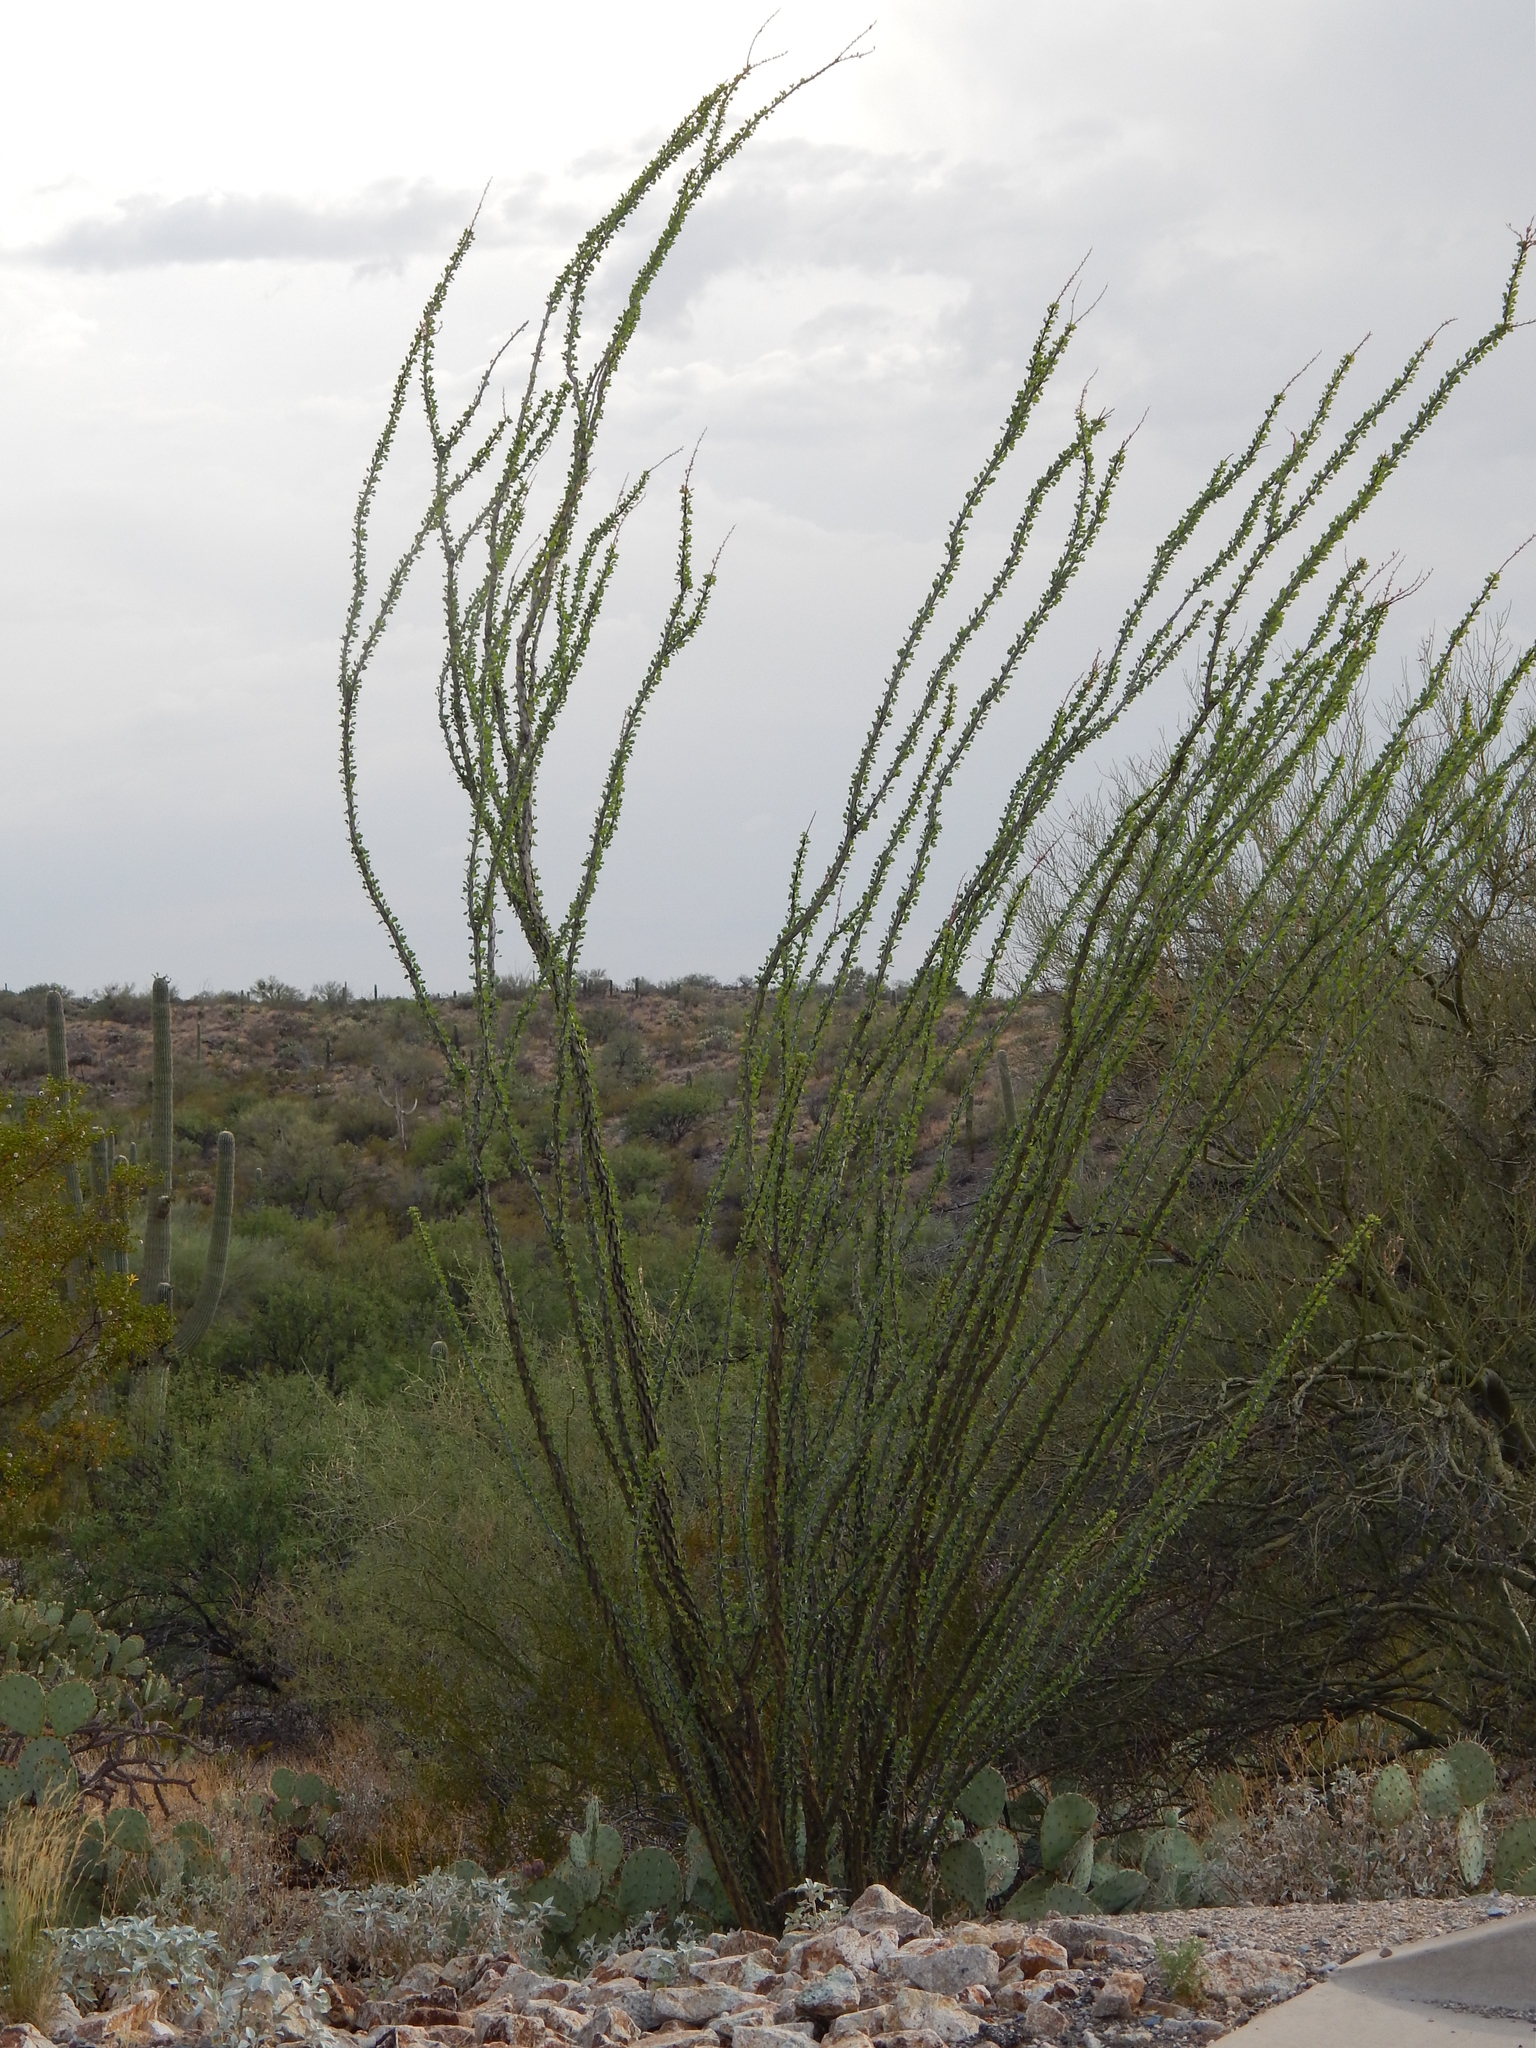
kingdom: Plantae
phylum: Tracheophyta
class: Magnoliopsida
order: Ericales
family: Fouquieriaceae
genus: Fouquieria
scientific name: Fouquieria splendens
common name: Vine-cactus
